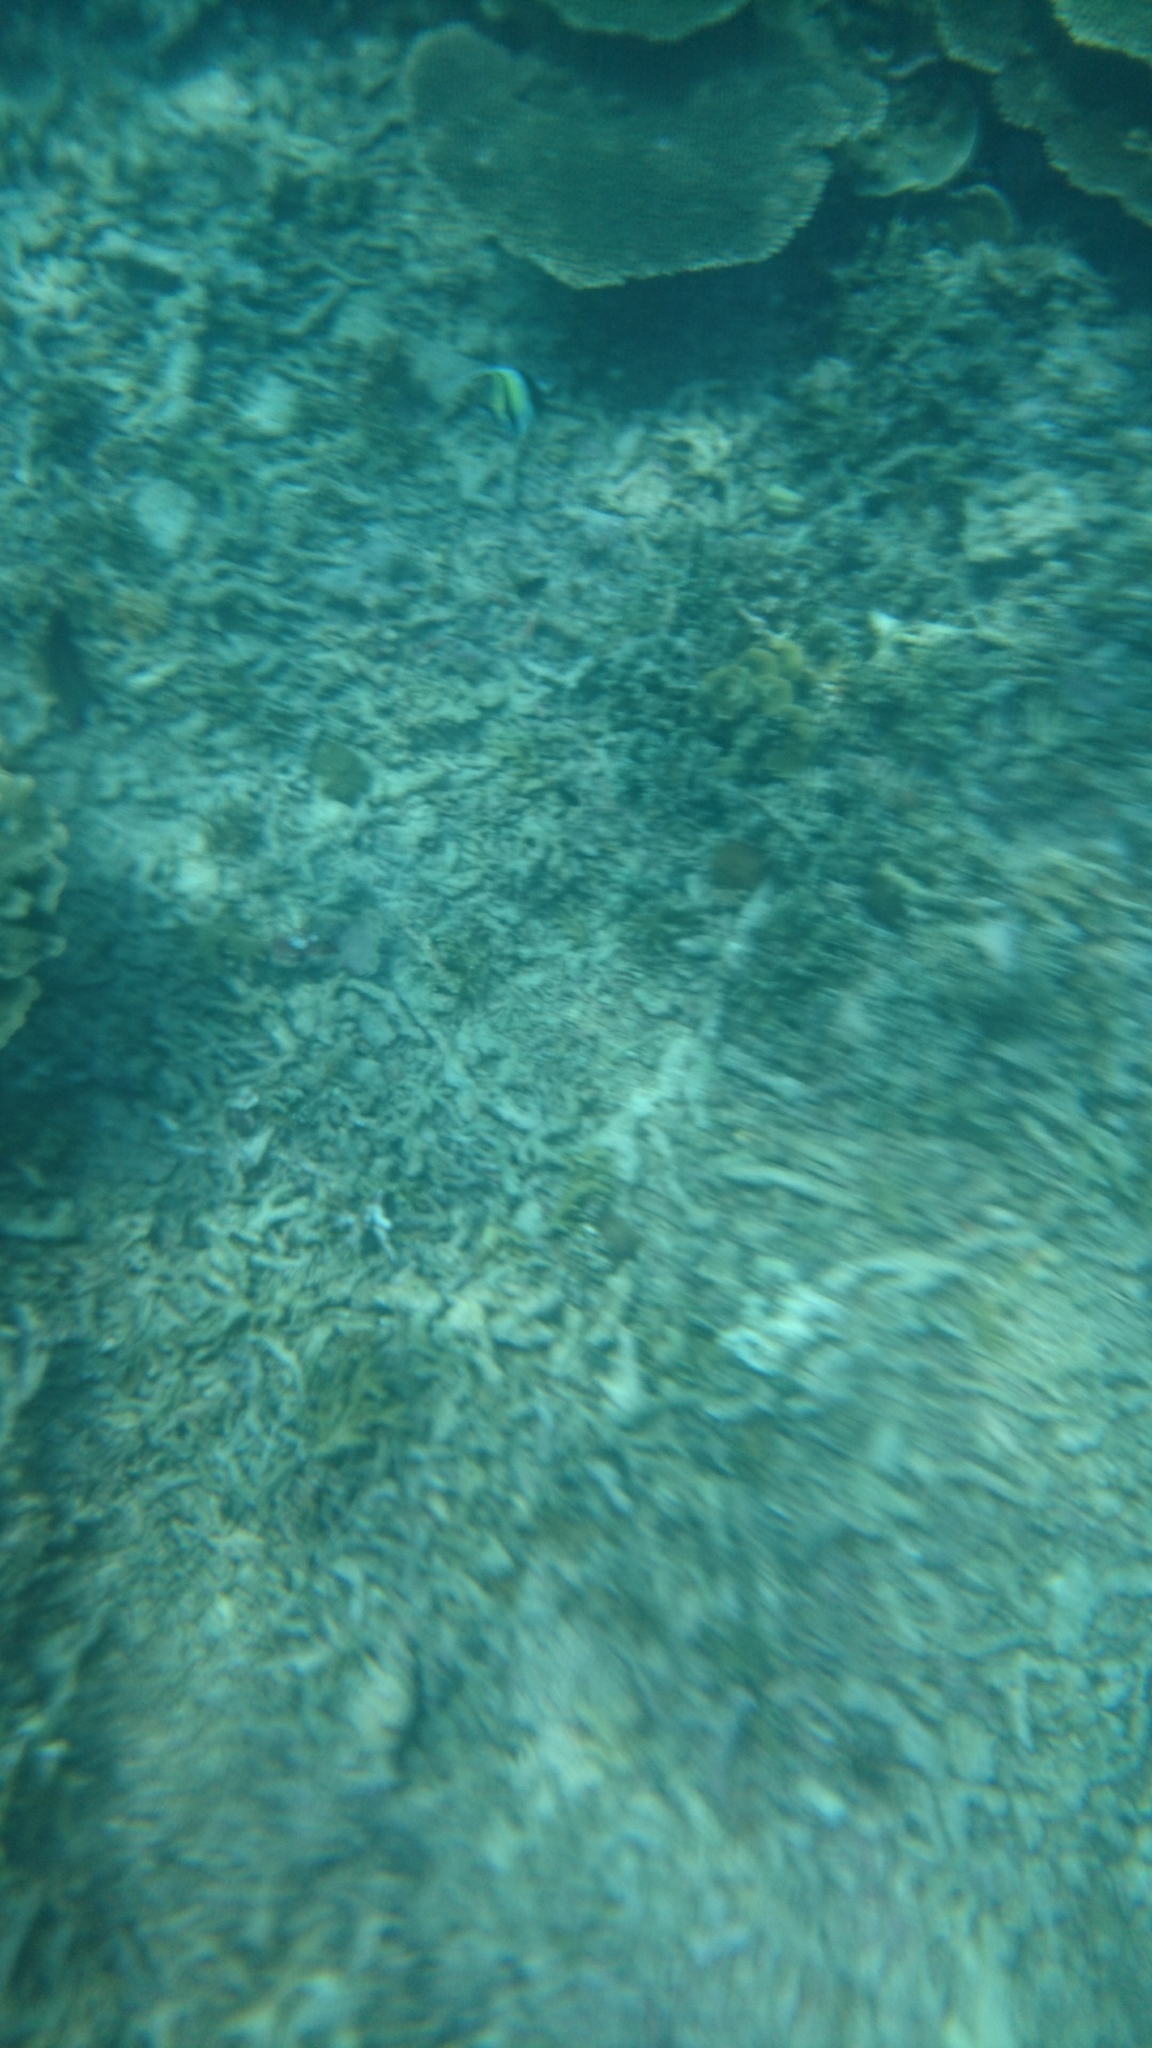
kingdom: Animalia
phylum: Chordata
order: Perciformes
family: Zanclidae
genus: Zanclus
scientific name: Zanclus cornutus
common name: Moorish idol
